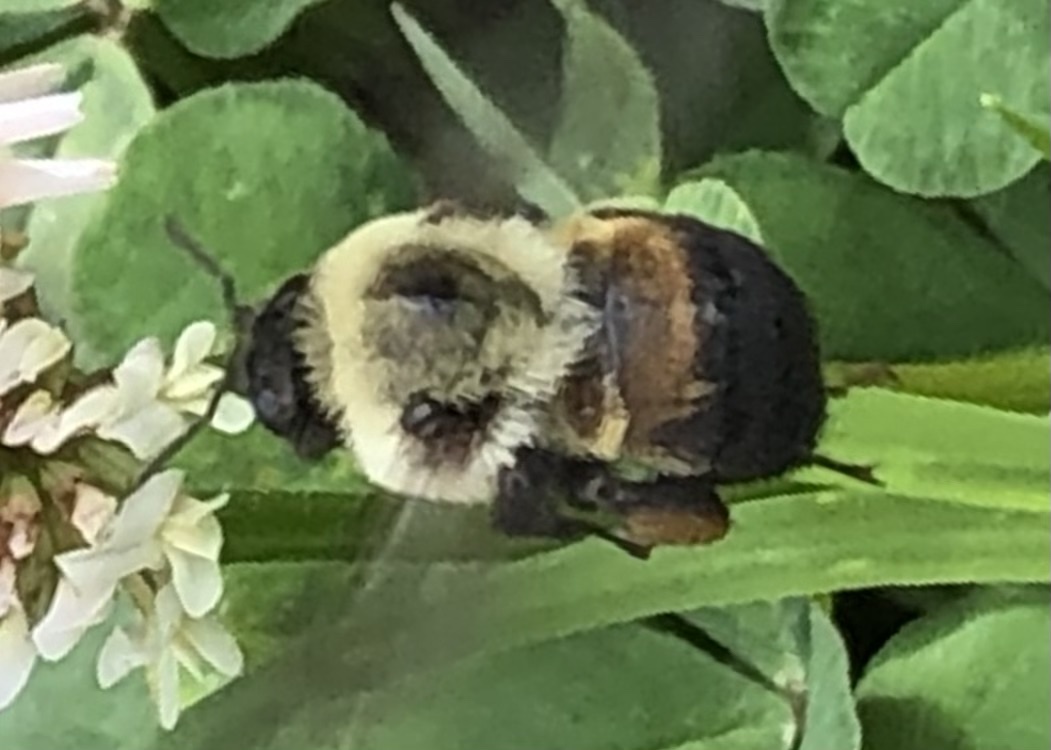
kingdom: Animalia
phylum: Arthropoda
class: Insecta
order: Hymenoptera
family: Apidae
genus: Bombus
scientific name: Bombus griseocollis
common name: Brown-belted bumble bee
